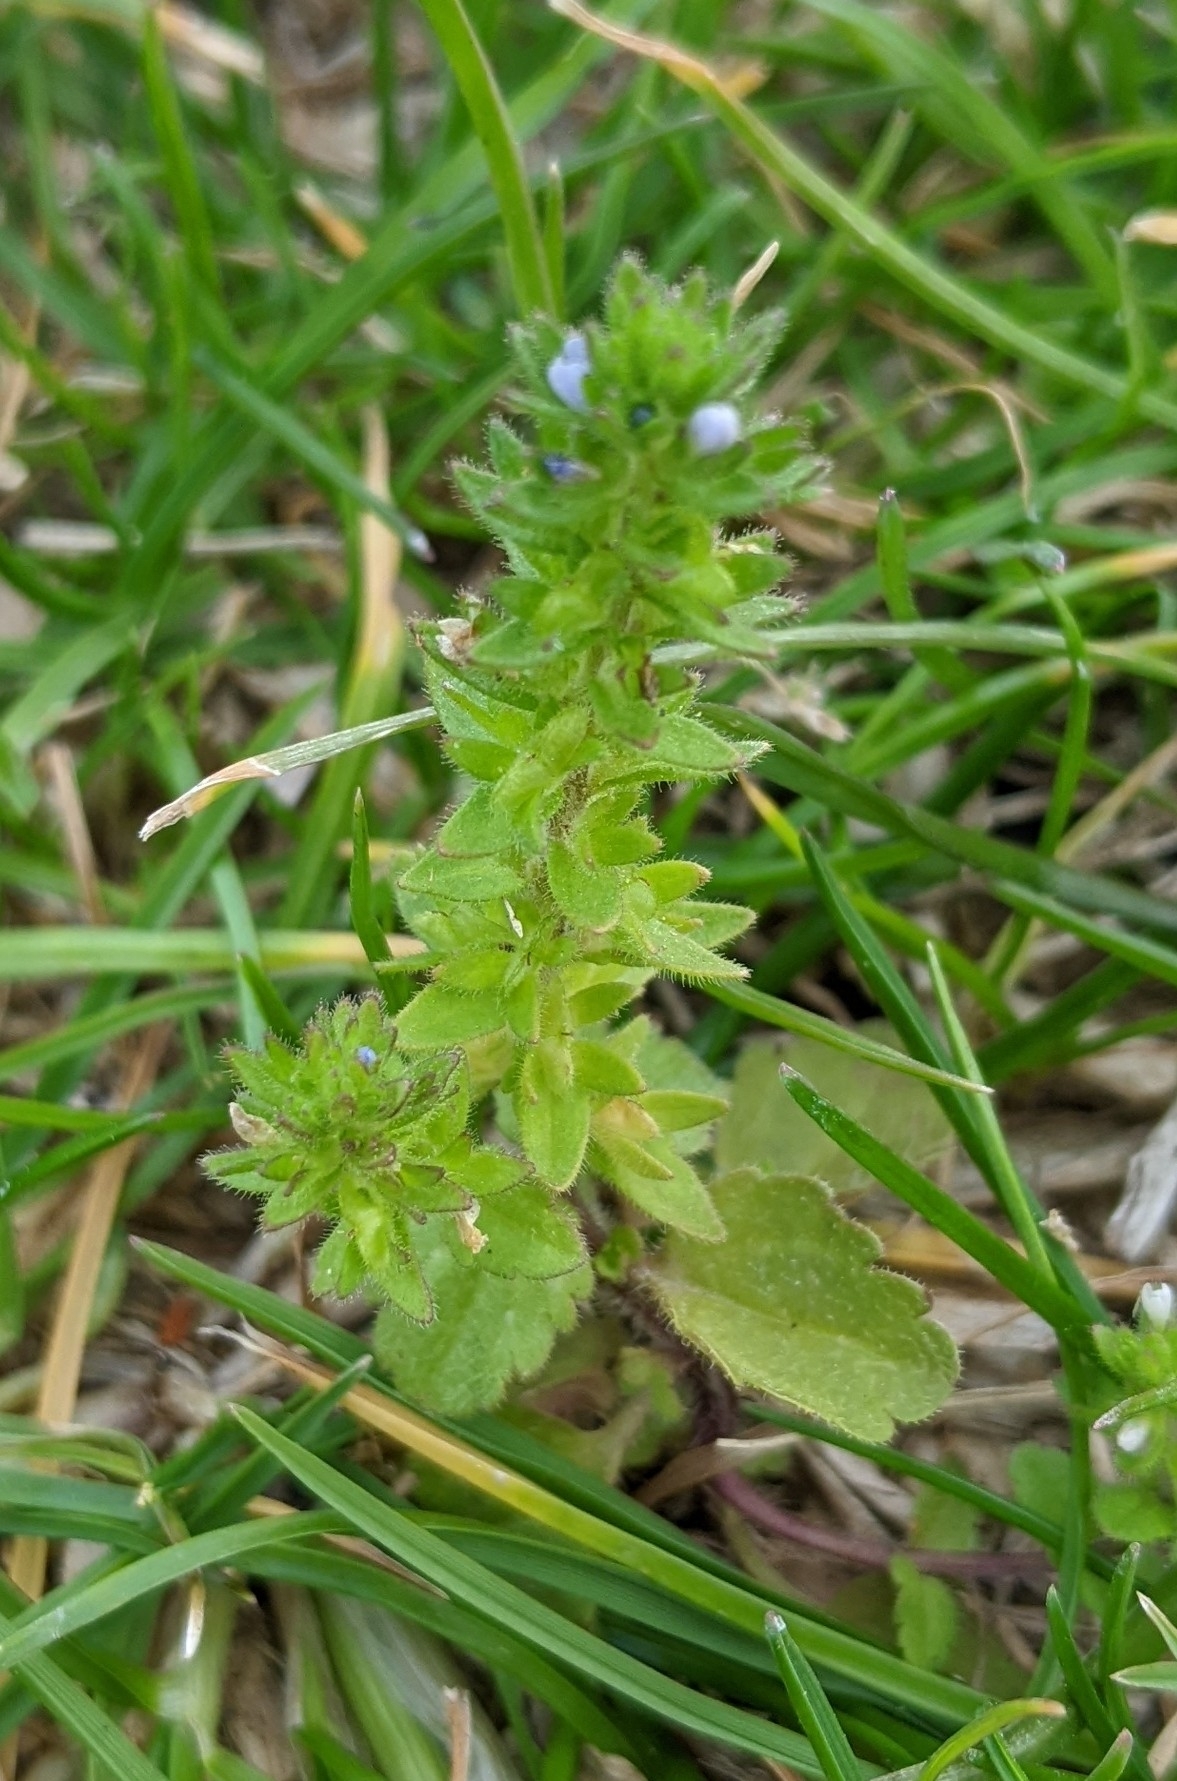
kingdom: Plantae
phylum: Tracheophyta
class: Magnoliopsida
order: Lamiales
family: Plantaginaceae
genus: Veronica
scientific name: Veronica arvensis
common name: Corn speedwell
